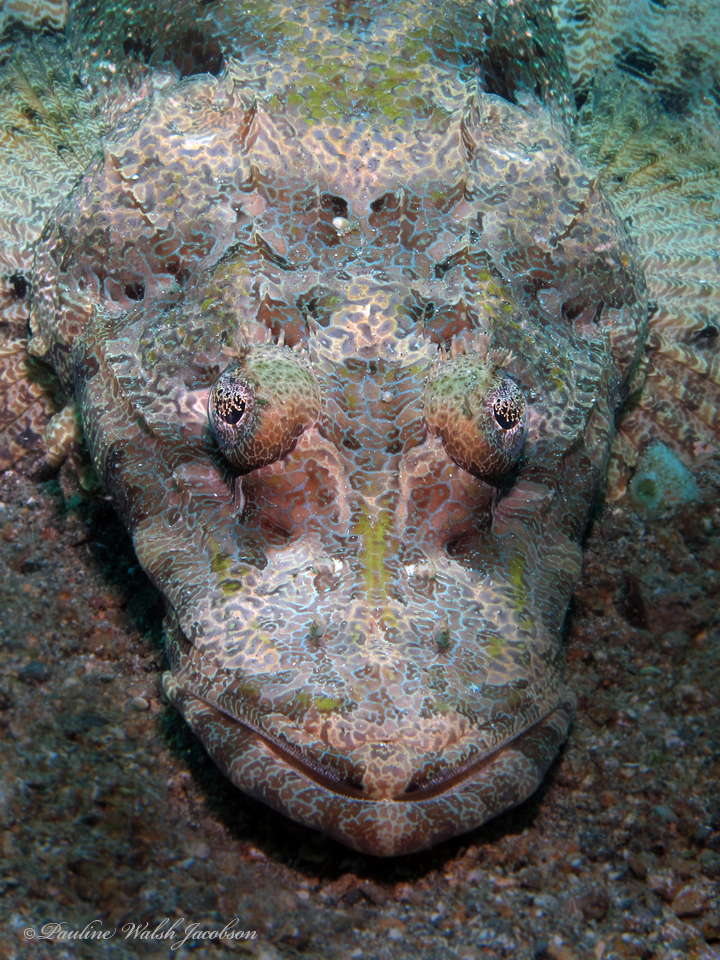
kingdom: Animalia
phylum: Chordata
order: Scorpaeniformes
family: Platycephalidae
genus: Cymbacephalus
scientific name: Cymbacephalus beauforti
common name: Crocodile fish
